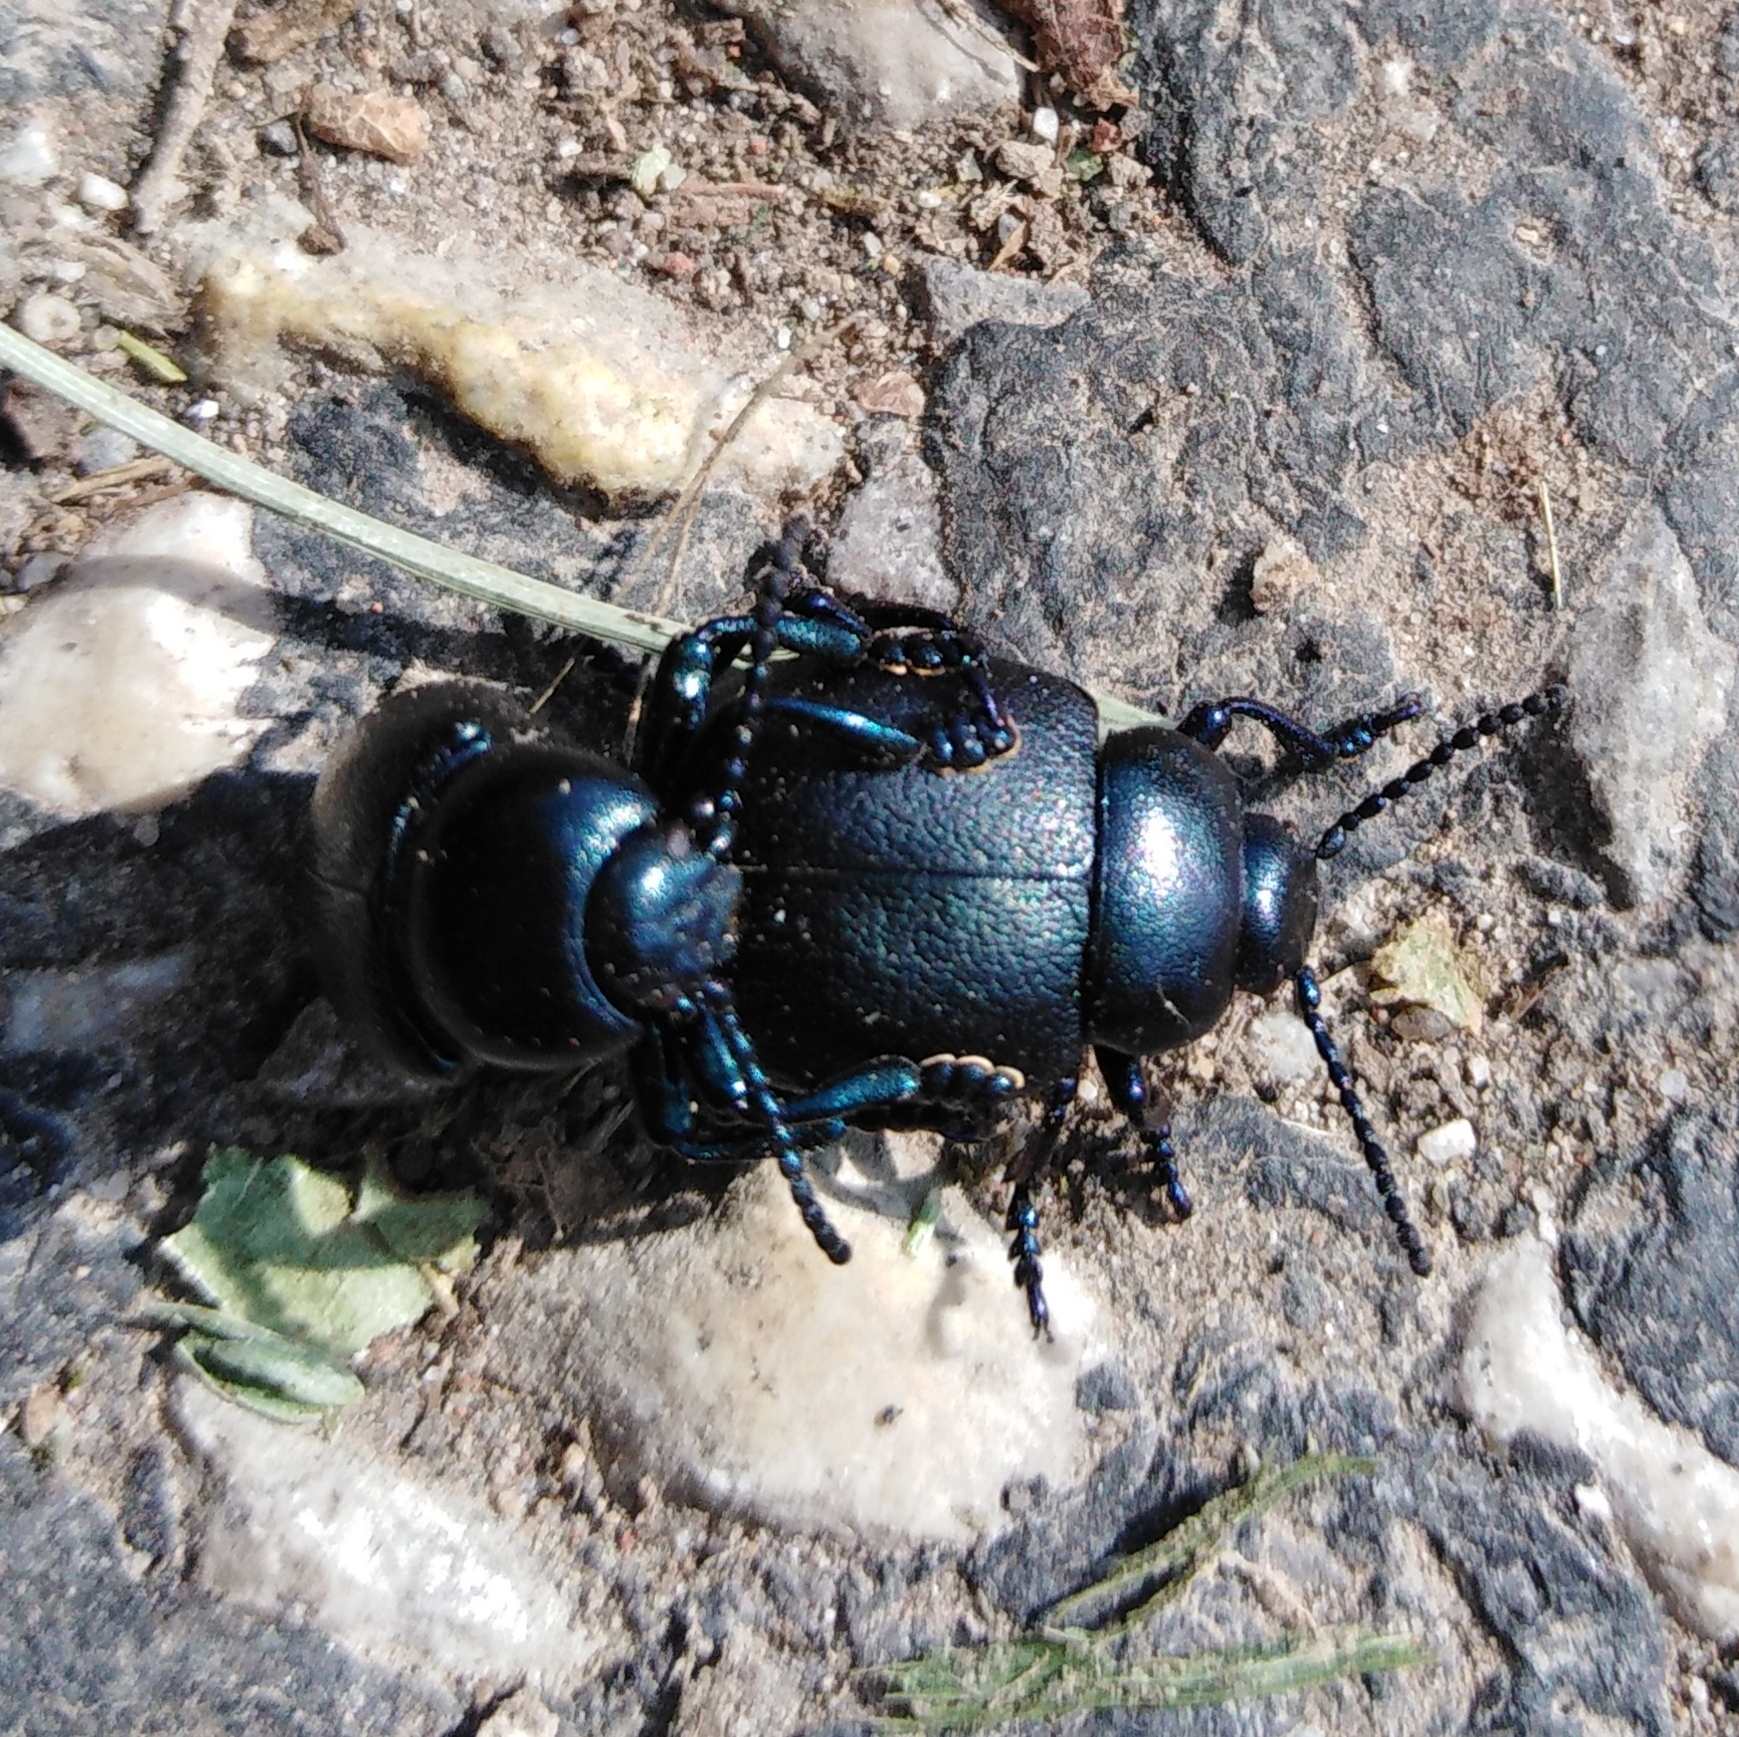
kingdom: Animalia
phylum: Arthropoda
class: Insecta
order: Coleoptera
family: Chrysomelidae
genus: Timarcha
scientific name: Timarcha tenebricosa
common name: Bloody-nosed beetle
